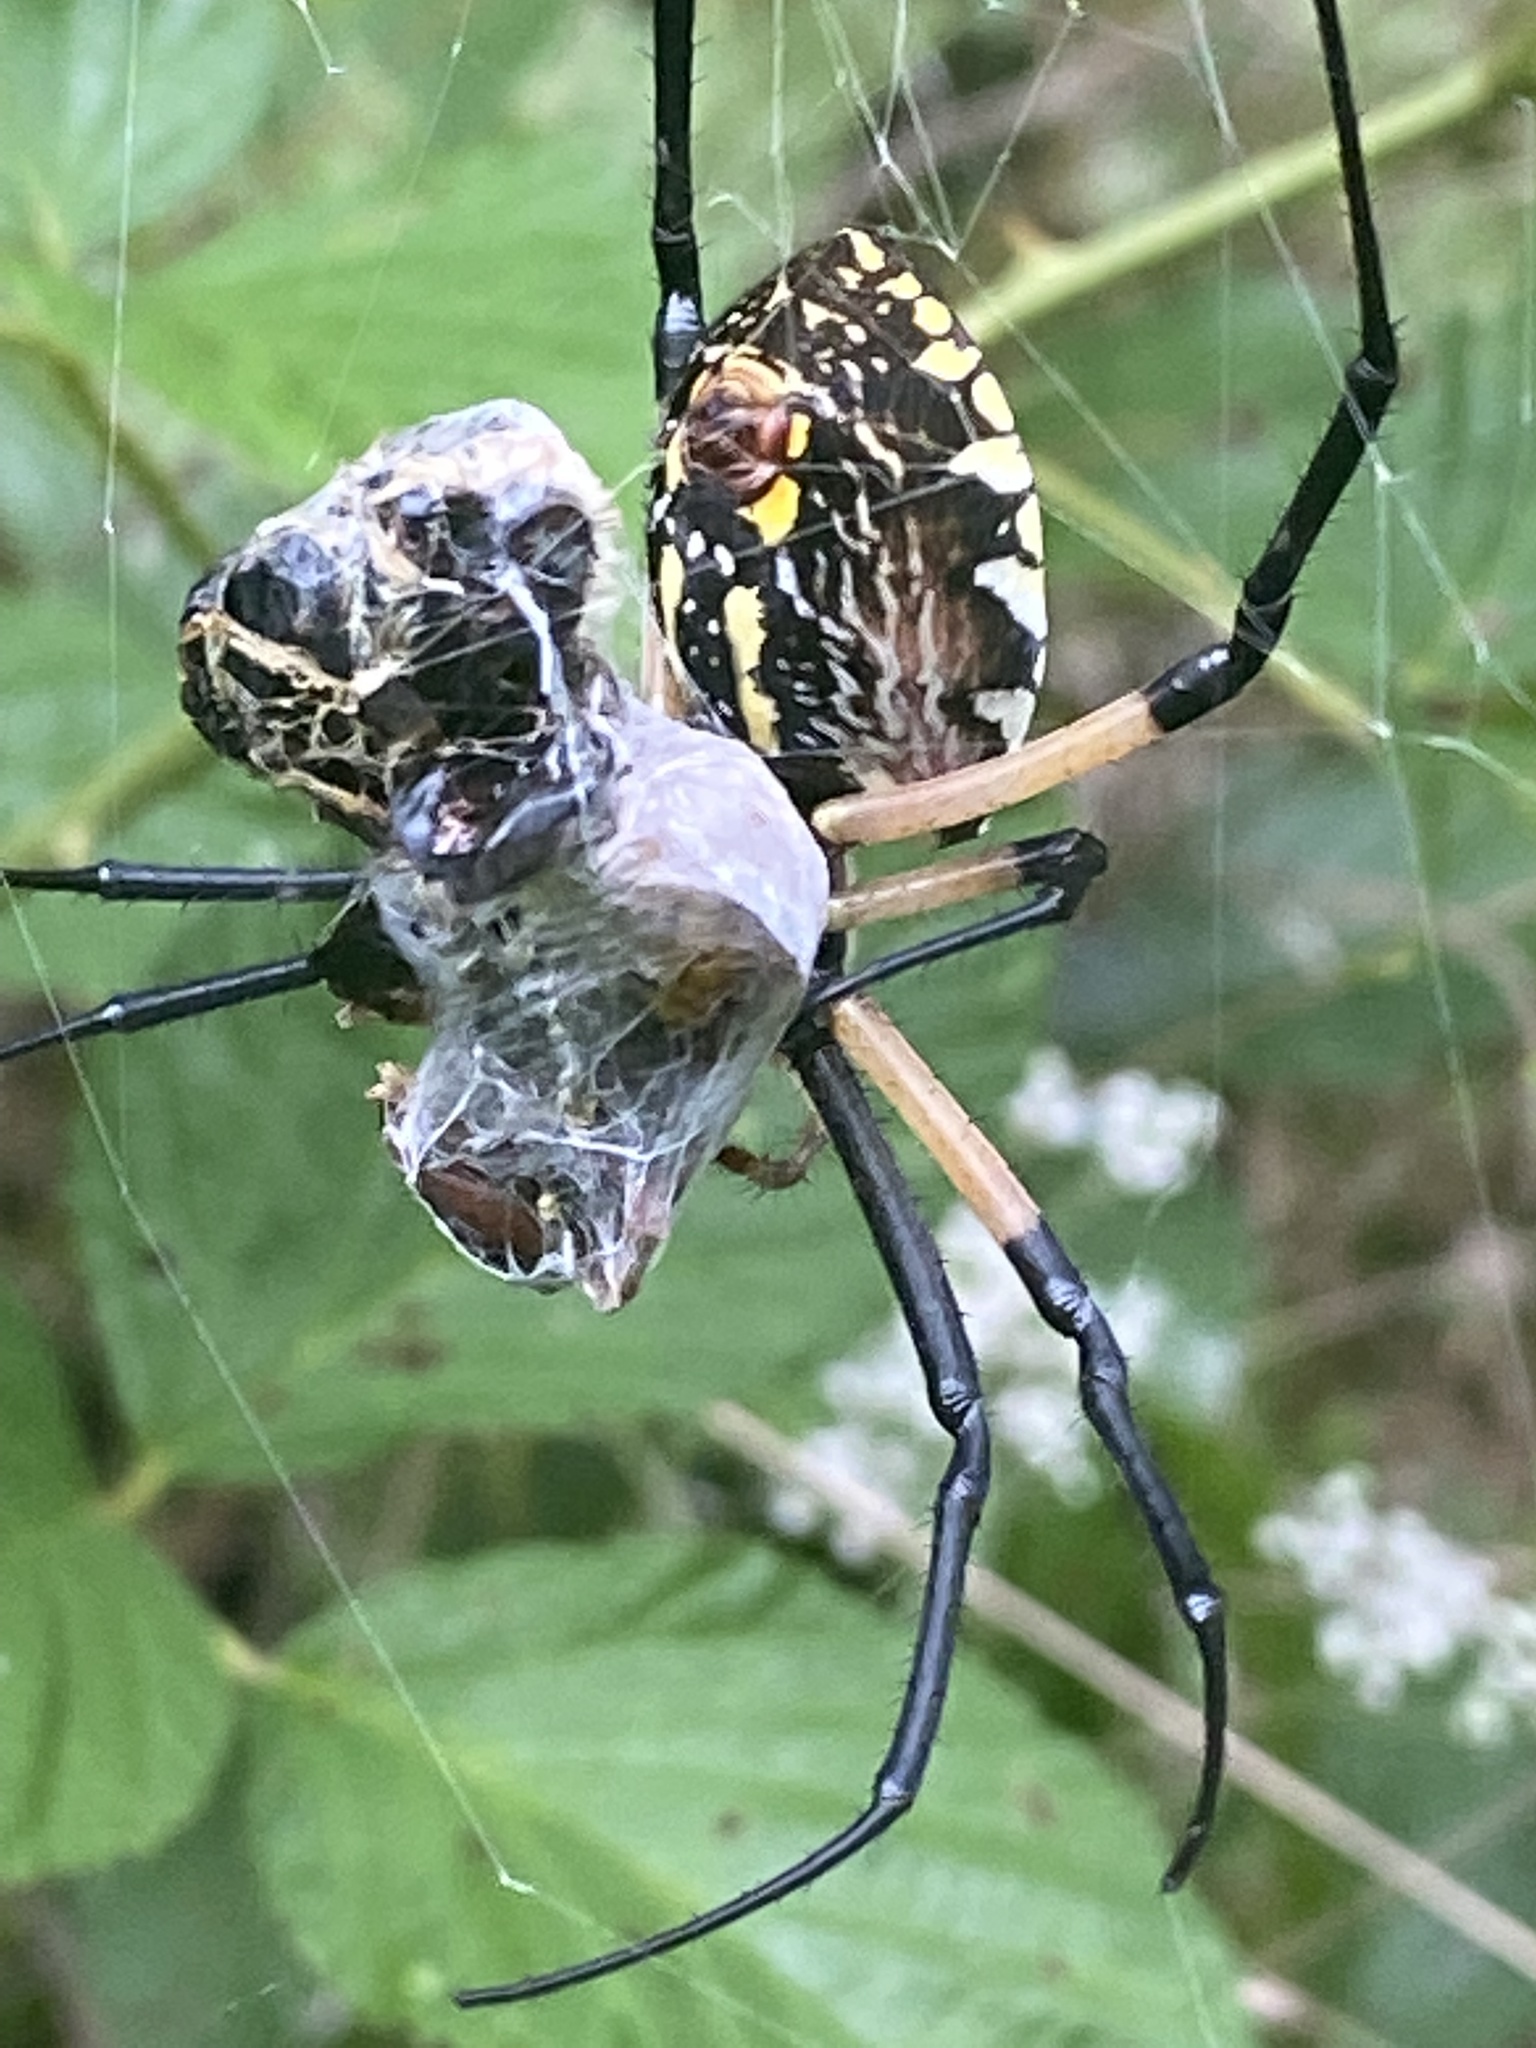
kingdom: Animalia
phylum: Arthropoda
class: Arachnida
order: Araneae
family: Araneidae
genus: Argiope
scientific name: Argiope aurantia
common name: Orb weavers
